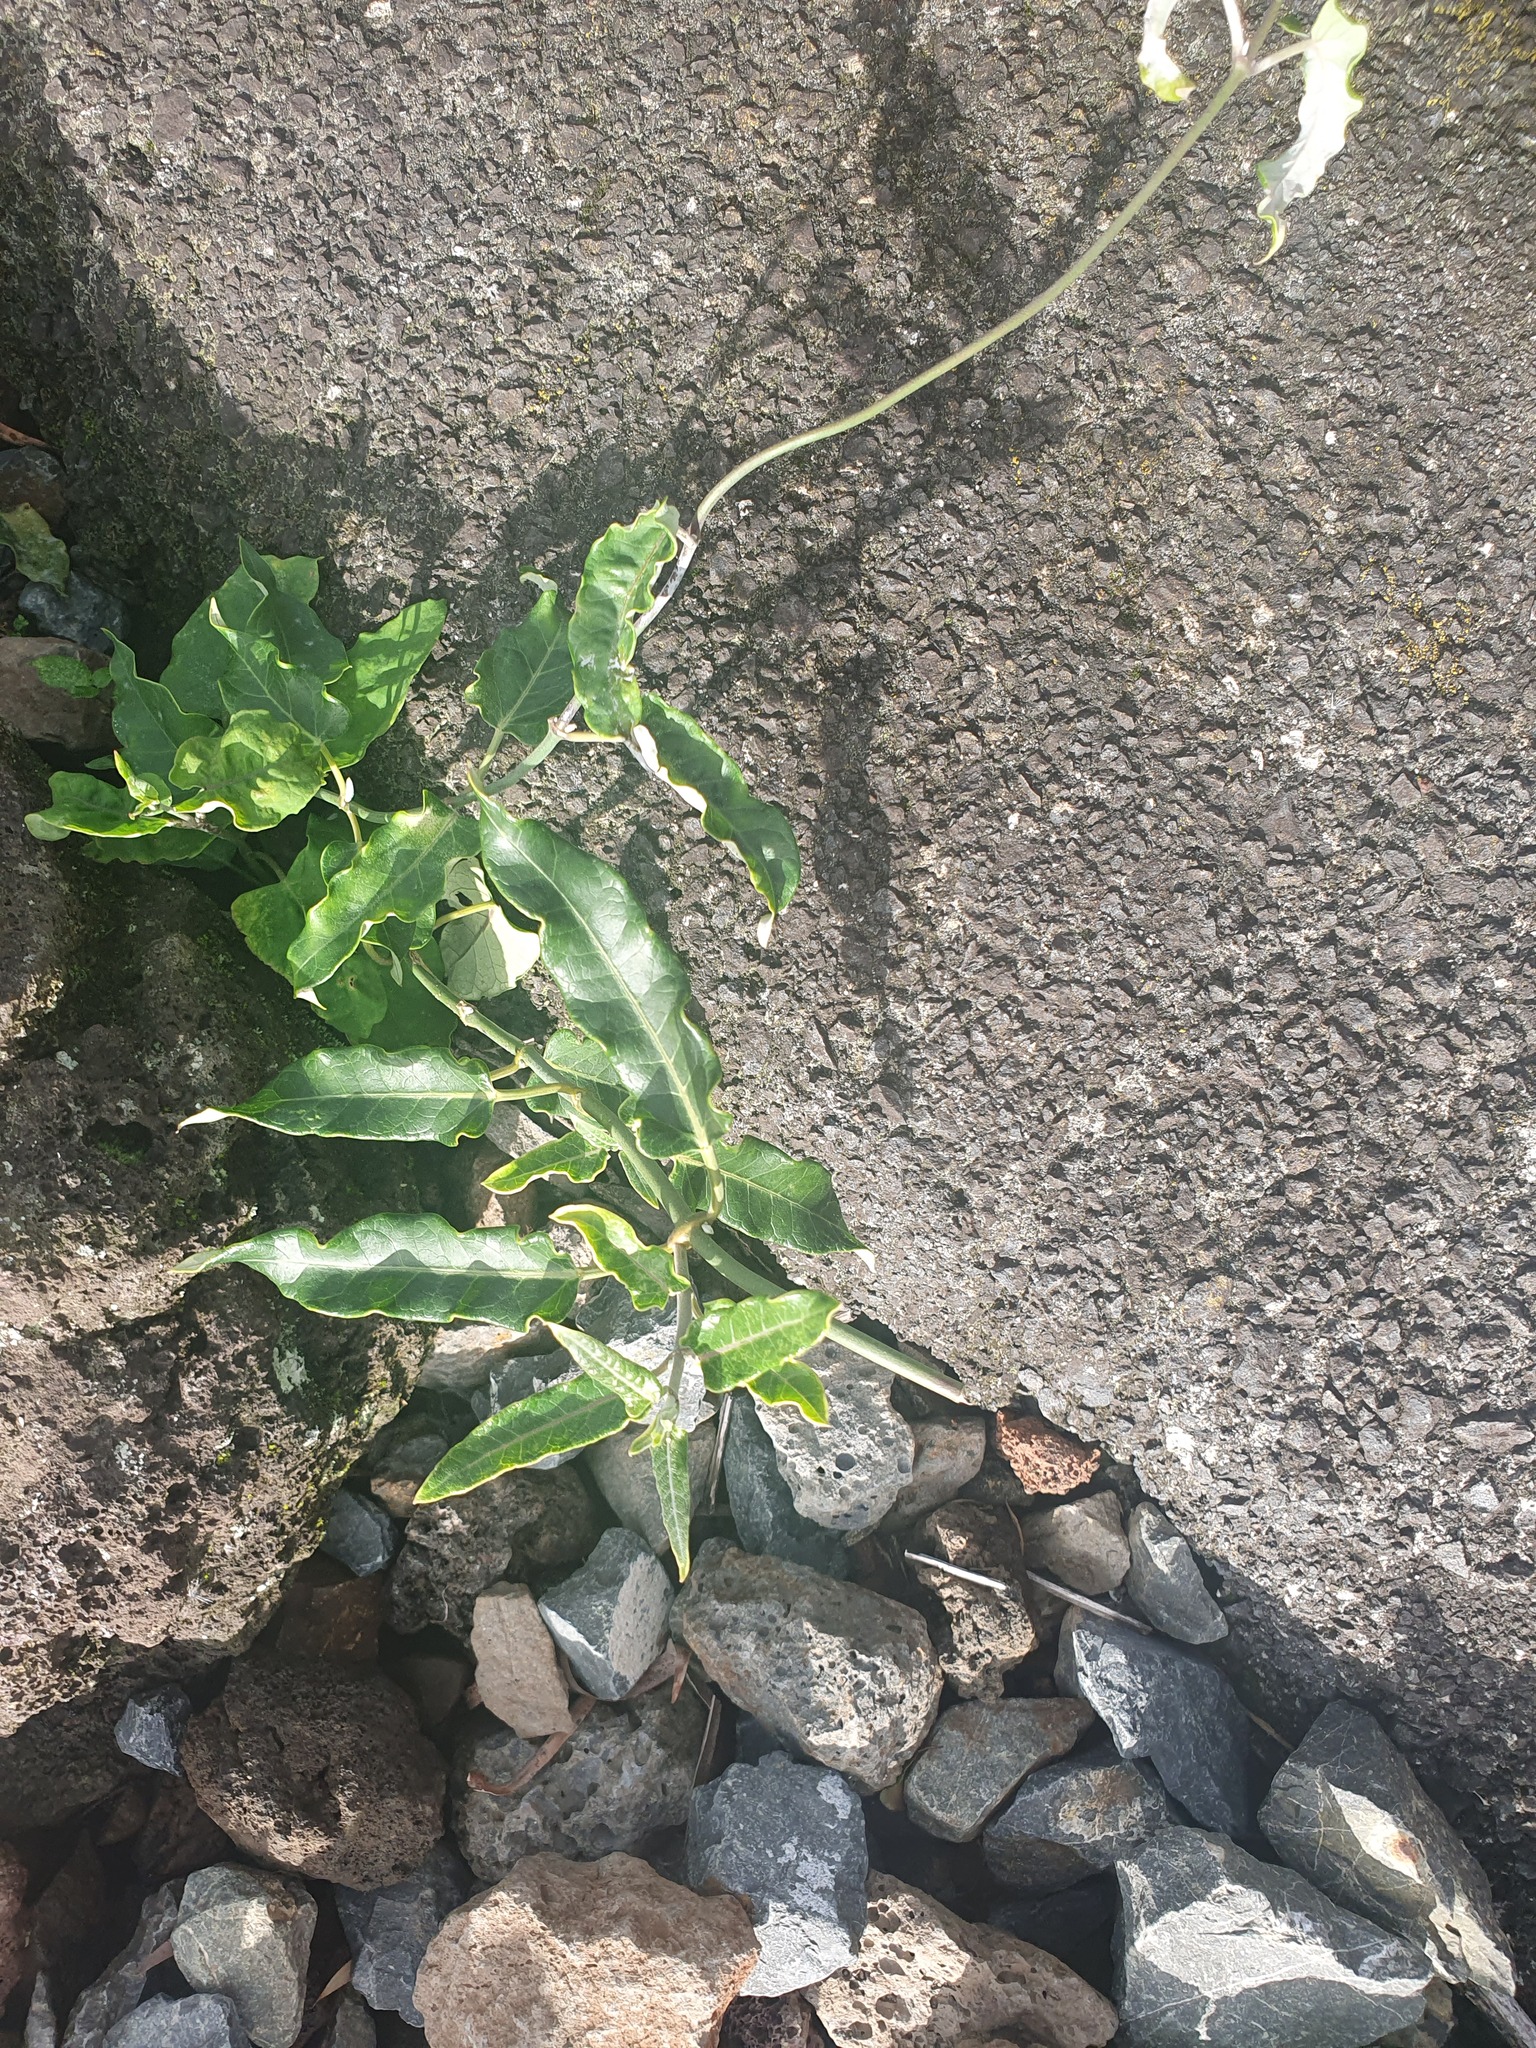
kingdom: Plantae
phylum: Tracheophyta
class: Magnoliopsida
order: Gentianales
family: Apocynaceae
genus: Araujia
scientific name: Araujia sericifera
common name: White bladderflower
